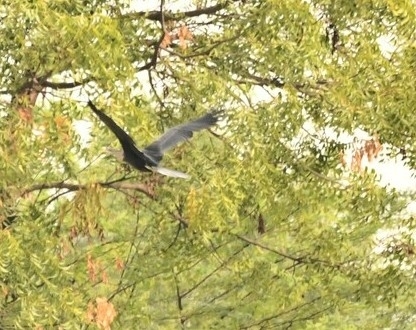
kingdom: Animalia
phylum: Chordata
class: Aves
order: Suliformes
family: Anhingidae
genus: Anhinga
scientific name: Anhinga melanogaster
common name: Oriental darter
